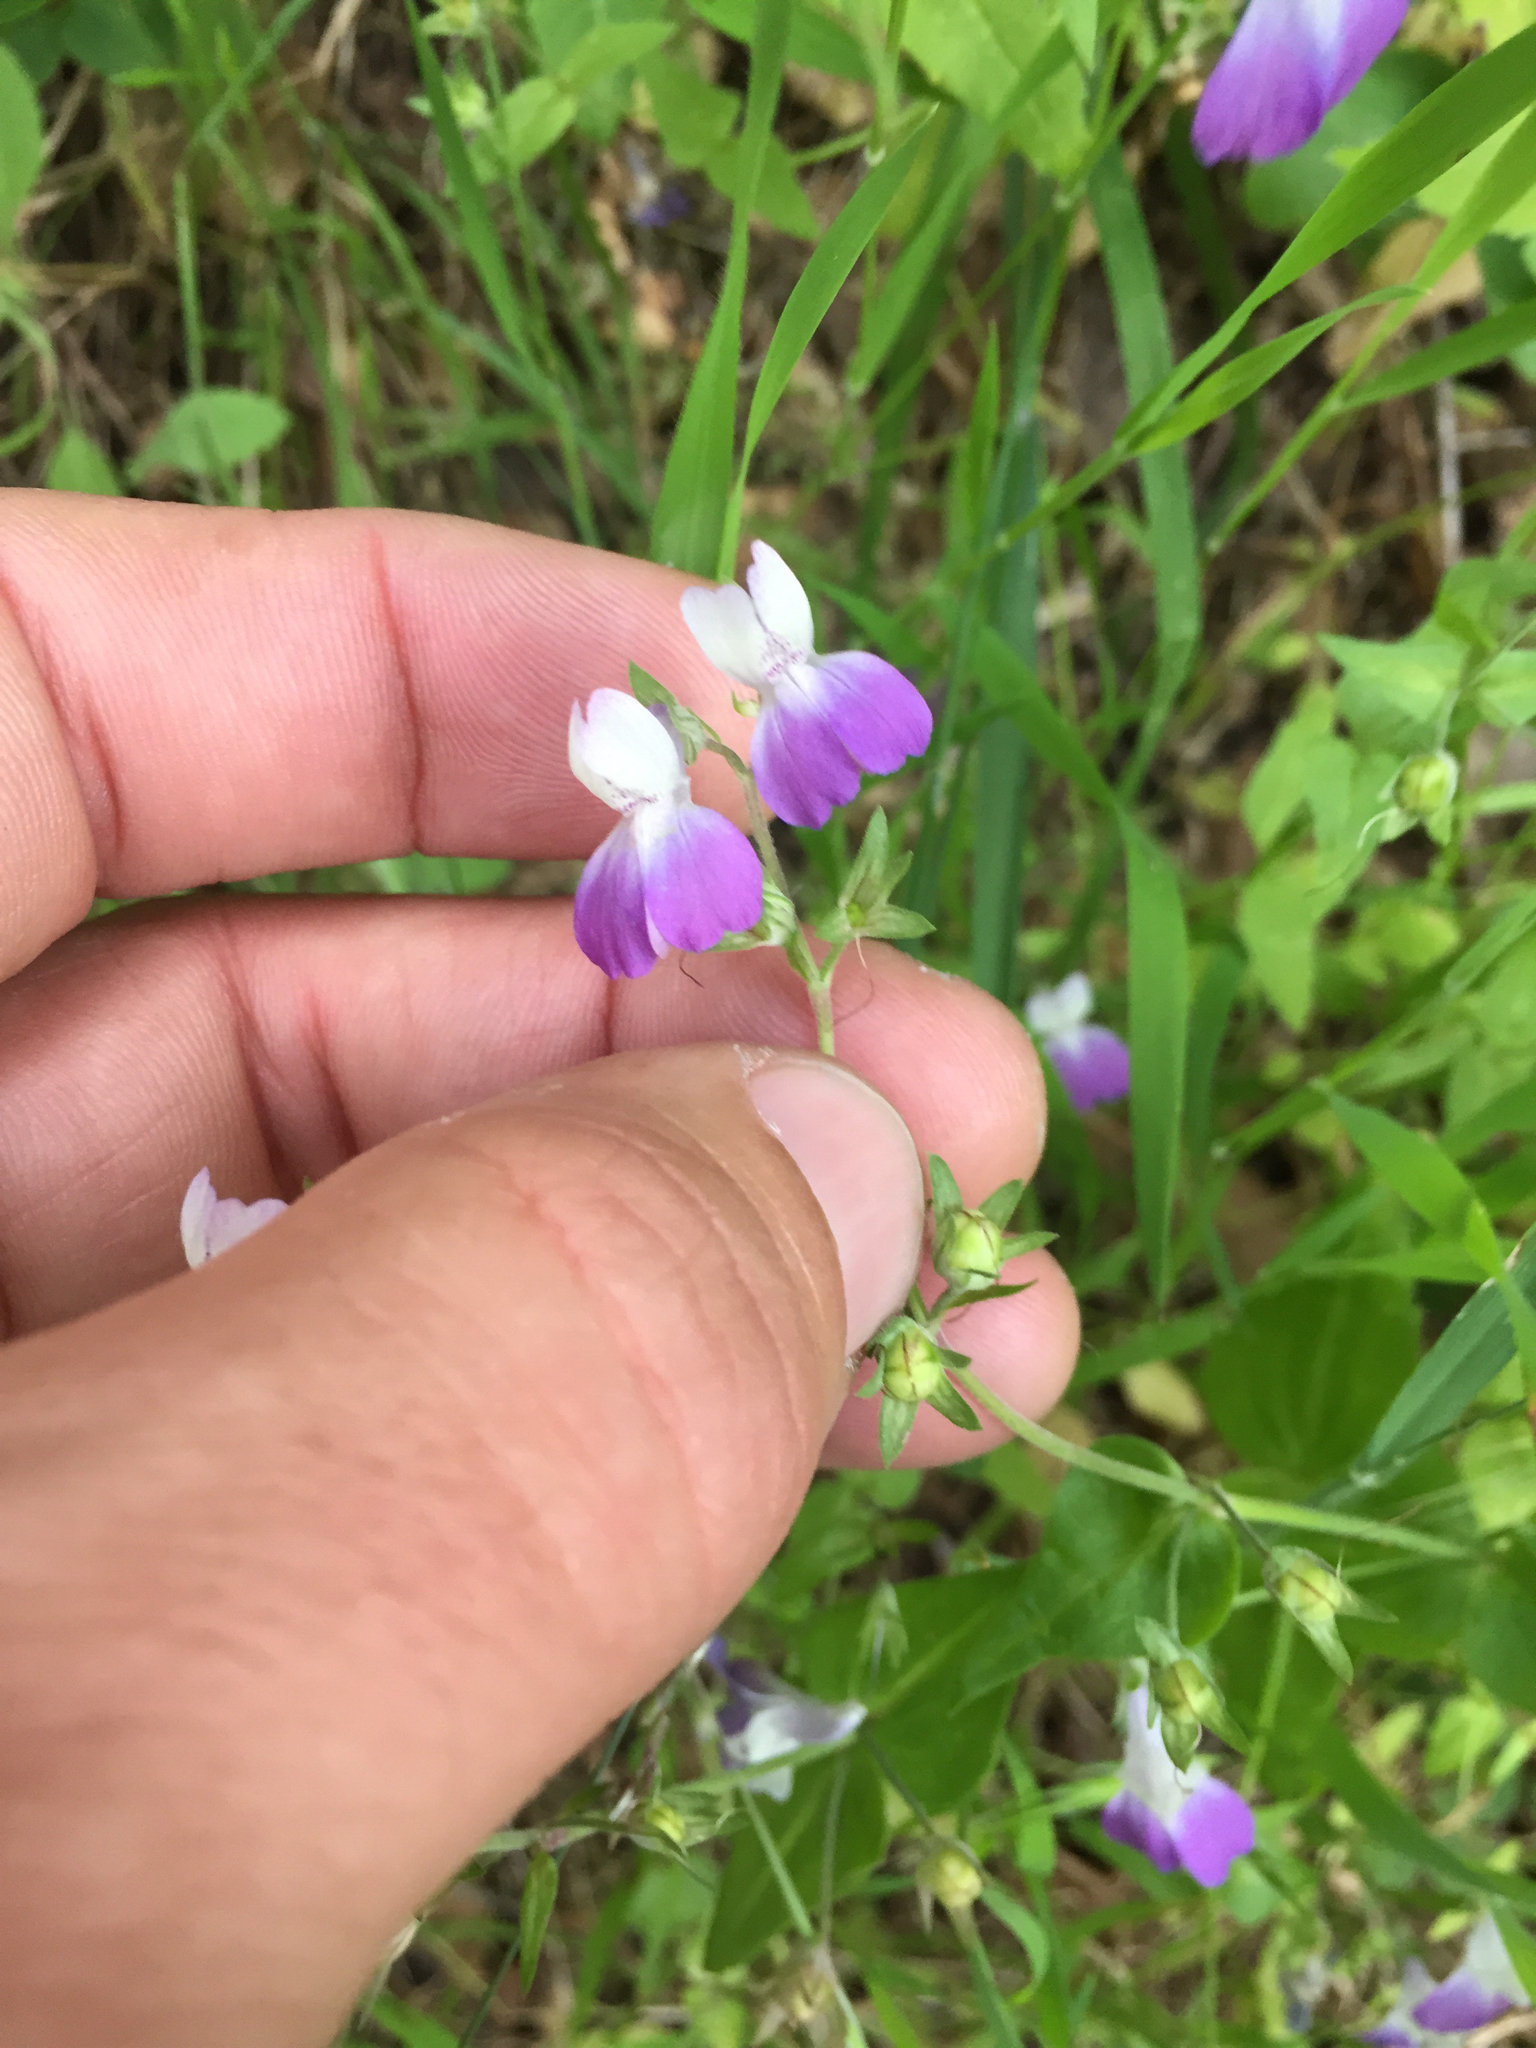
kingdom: Plantae
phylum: Tracheophyta
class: Magnoliopsida
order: Lamiales
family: Plantaginaceae
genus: Collinsia
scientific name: Collinsia multicolor
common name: San francisco collinsia
